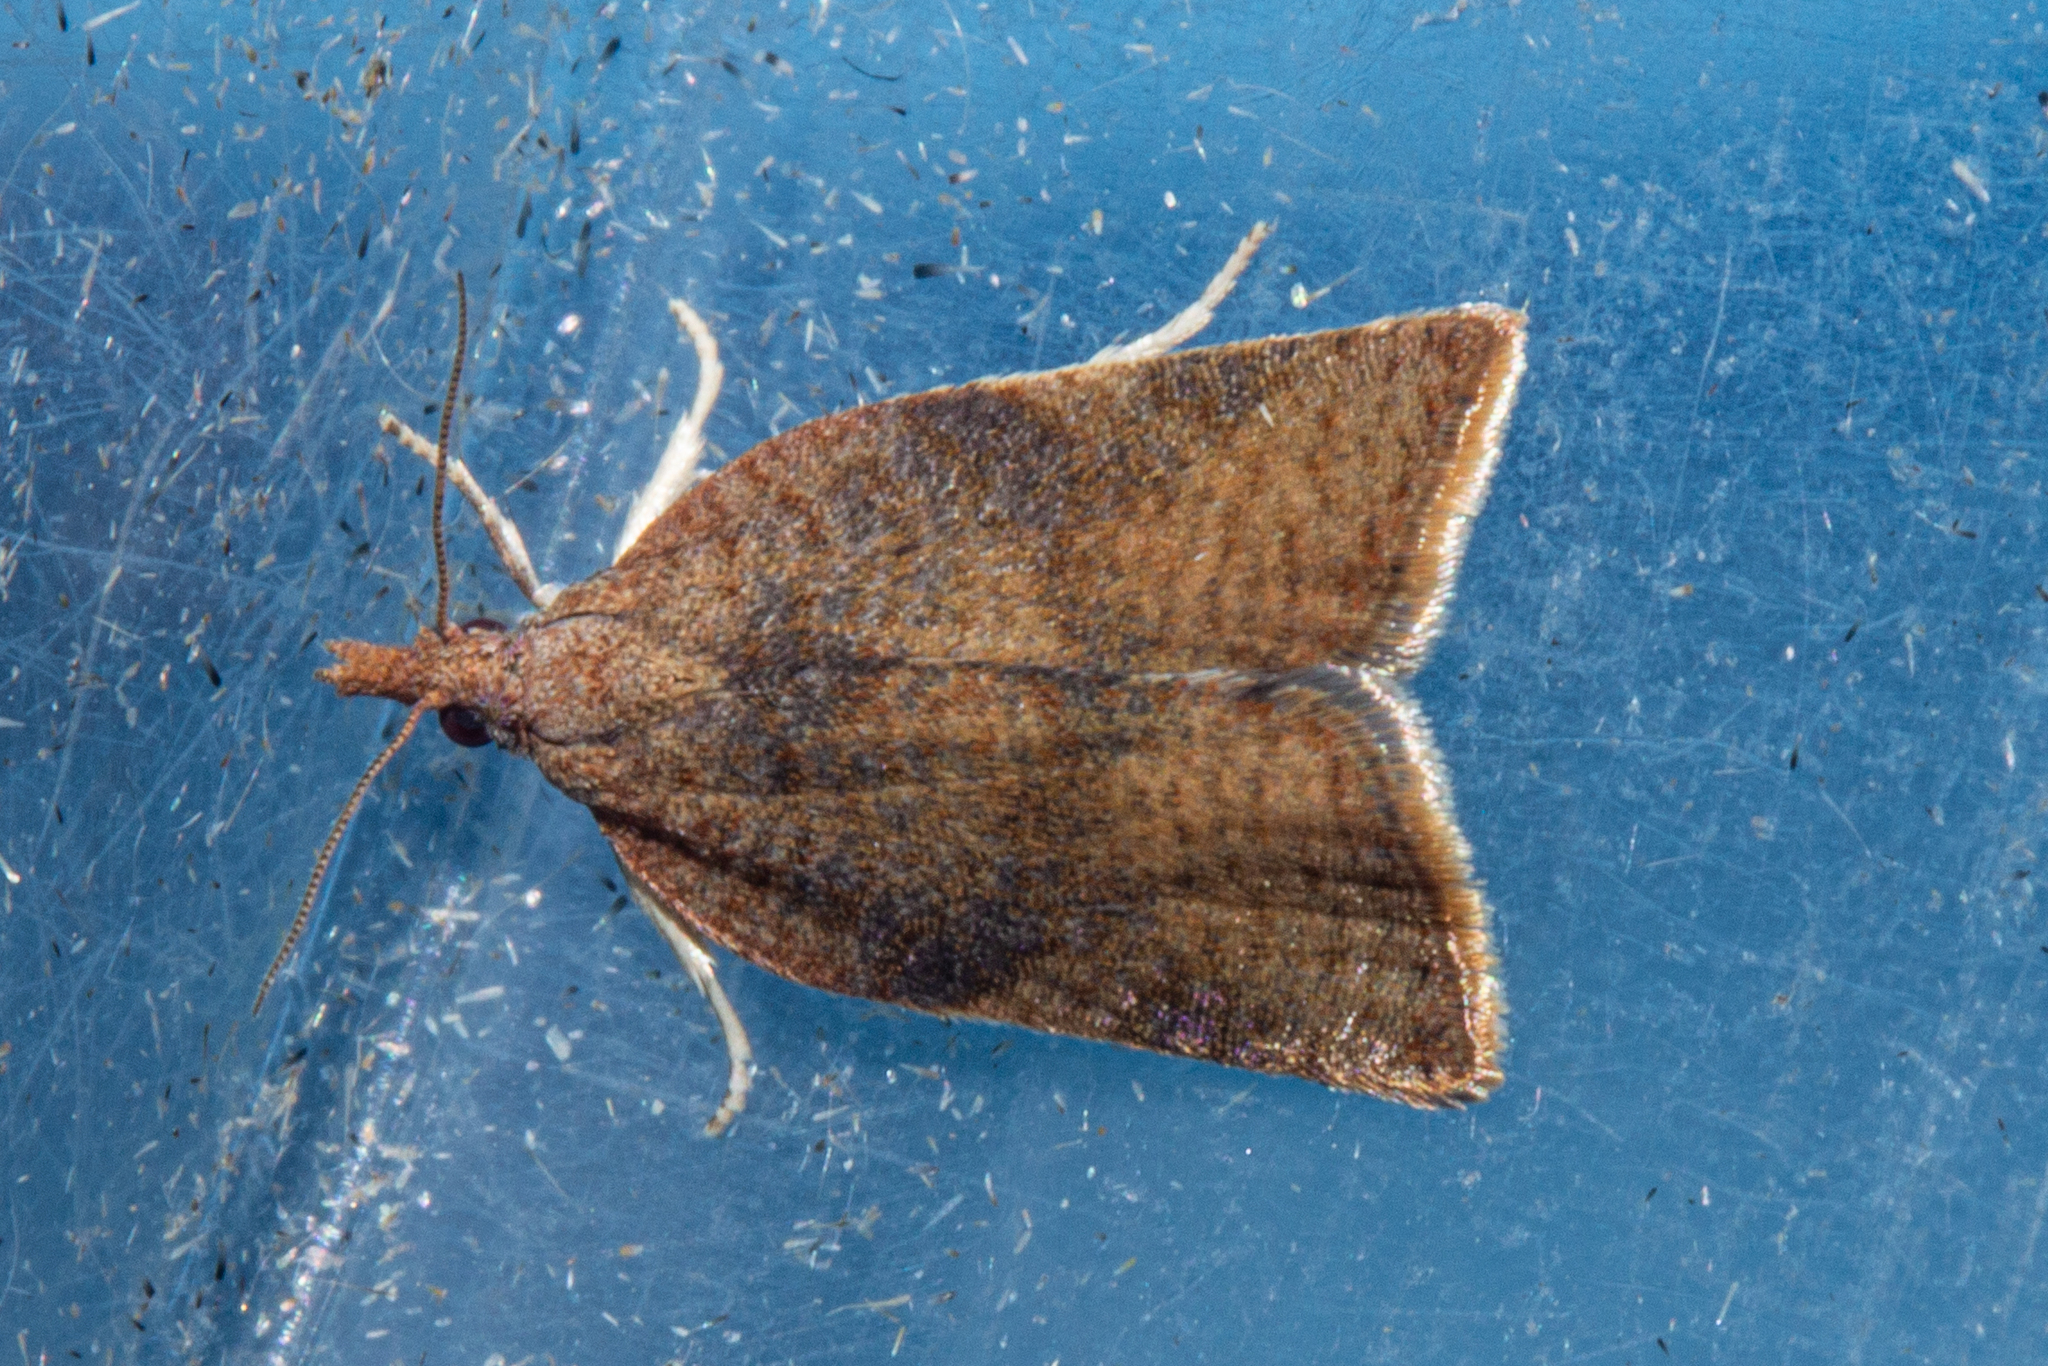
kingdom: Animalia
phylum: Arthropoda
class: Insecta
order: Lepidoptera
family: Tortricidae
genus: Catamacta
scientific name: Catamacta gavisana
